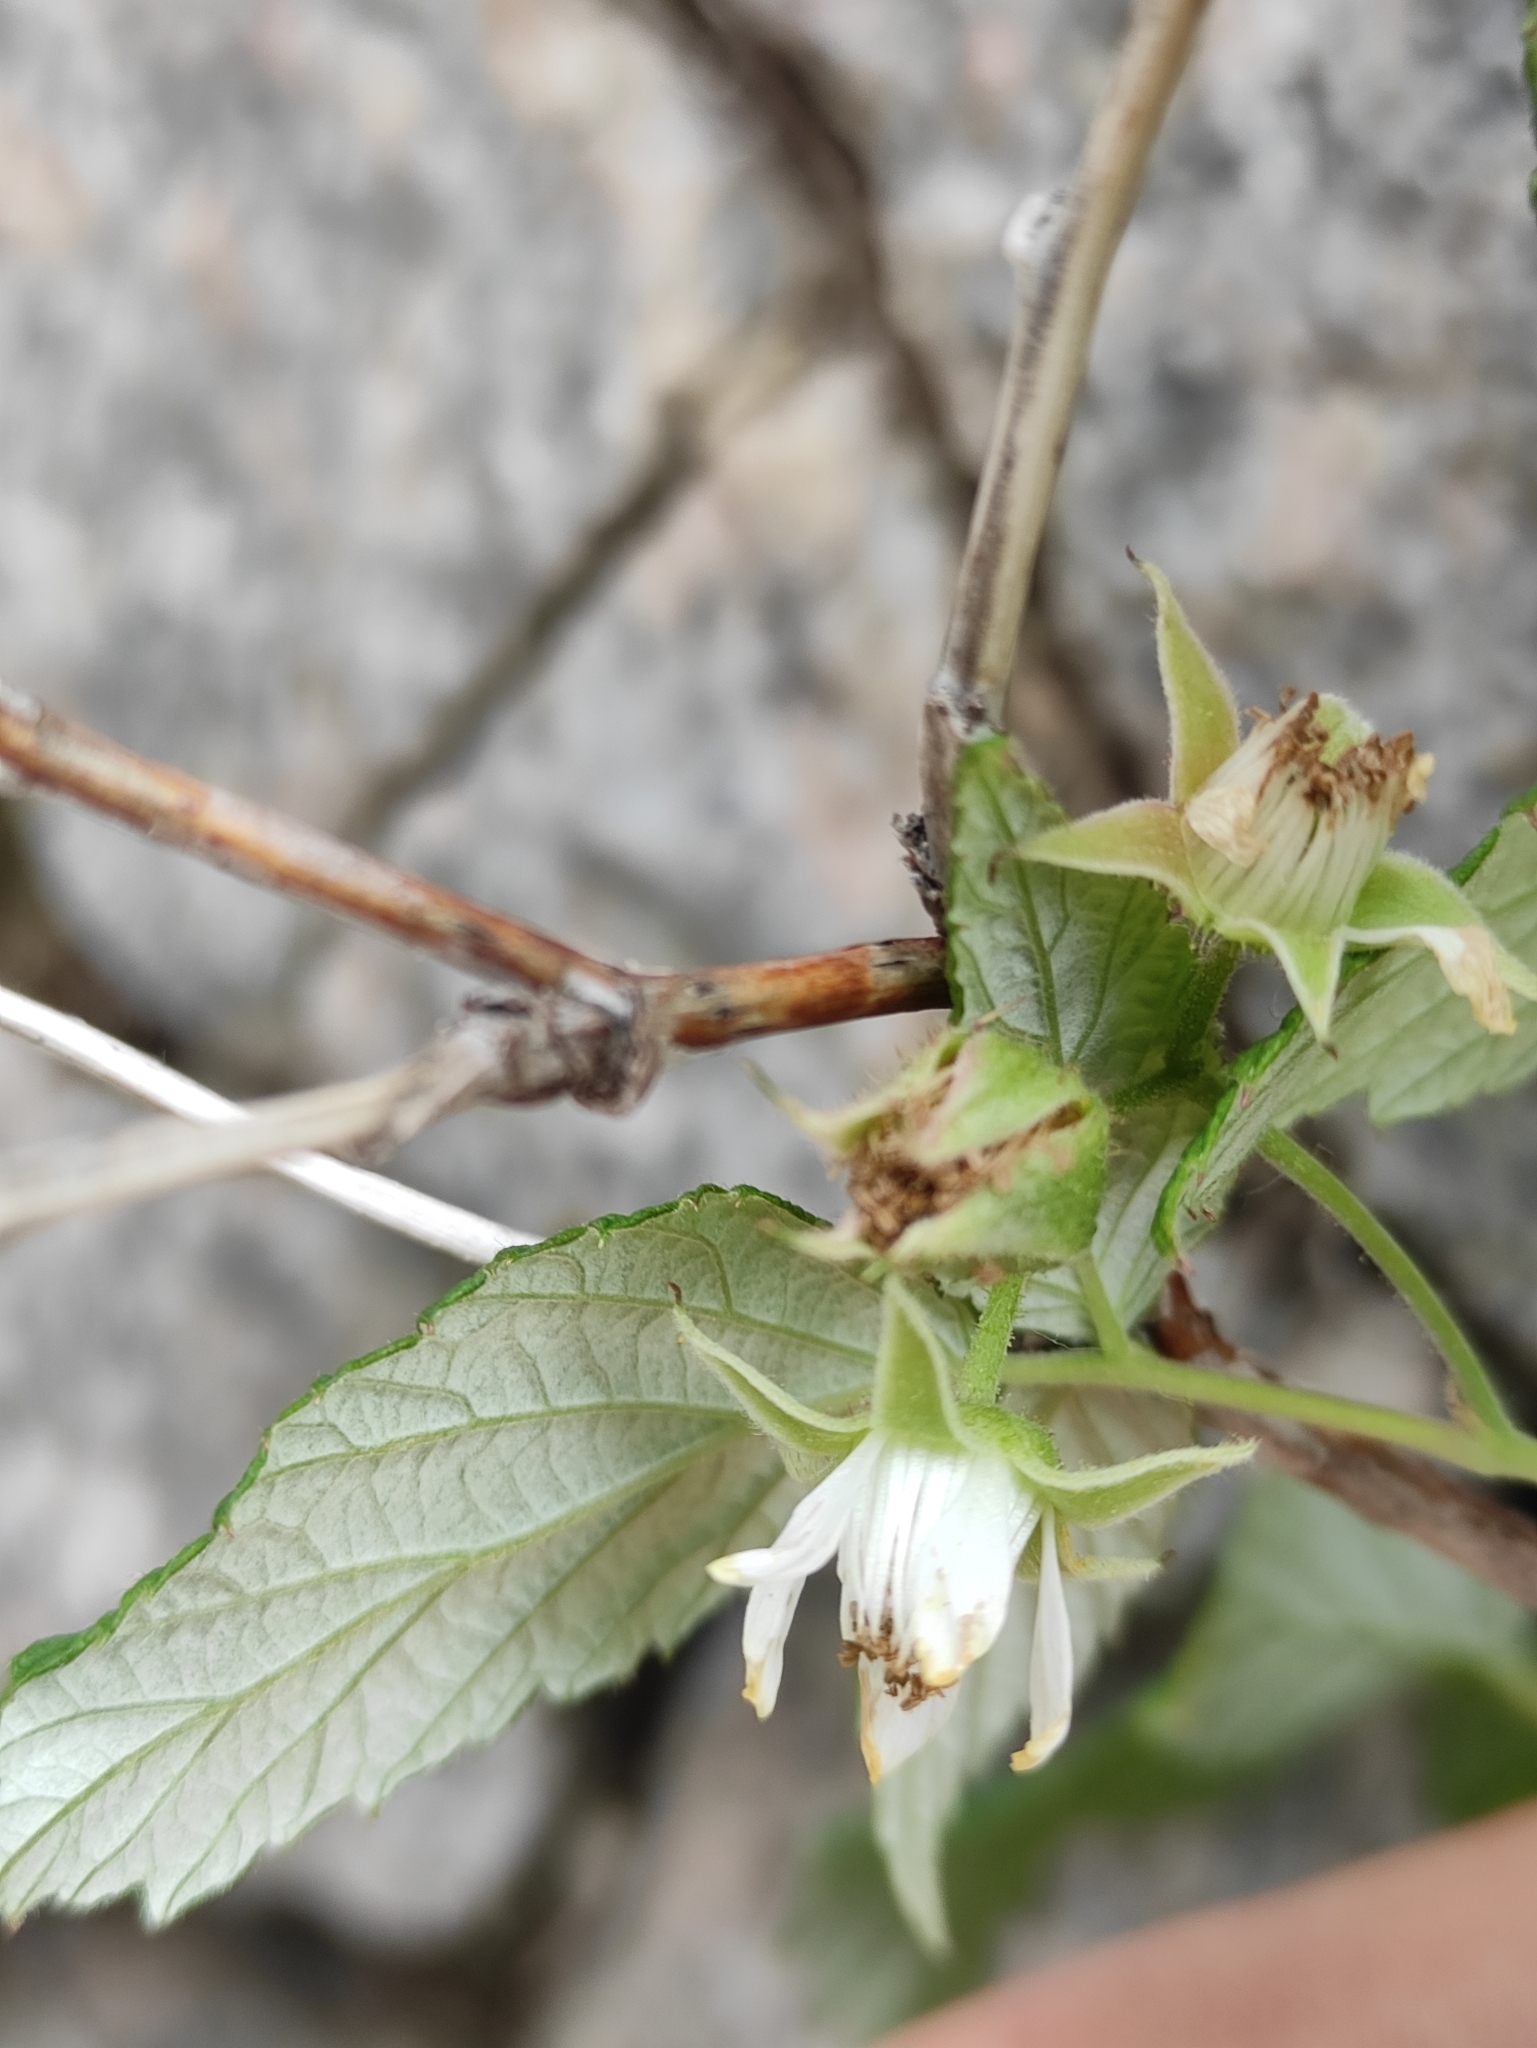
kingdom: Plantae
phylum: Tracheophyta
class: Magnoliopsida
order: Rosales
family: Rosaceae
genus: Rubus
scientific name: Rubus sachalinensis
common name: Red raspberry
